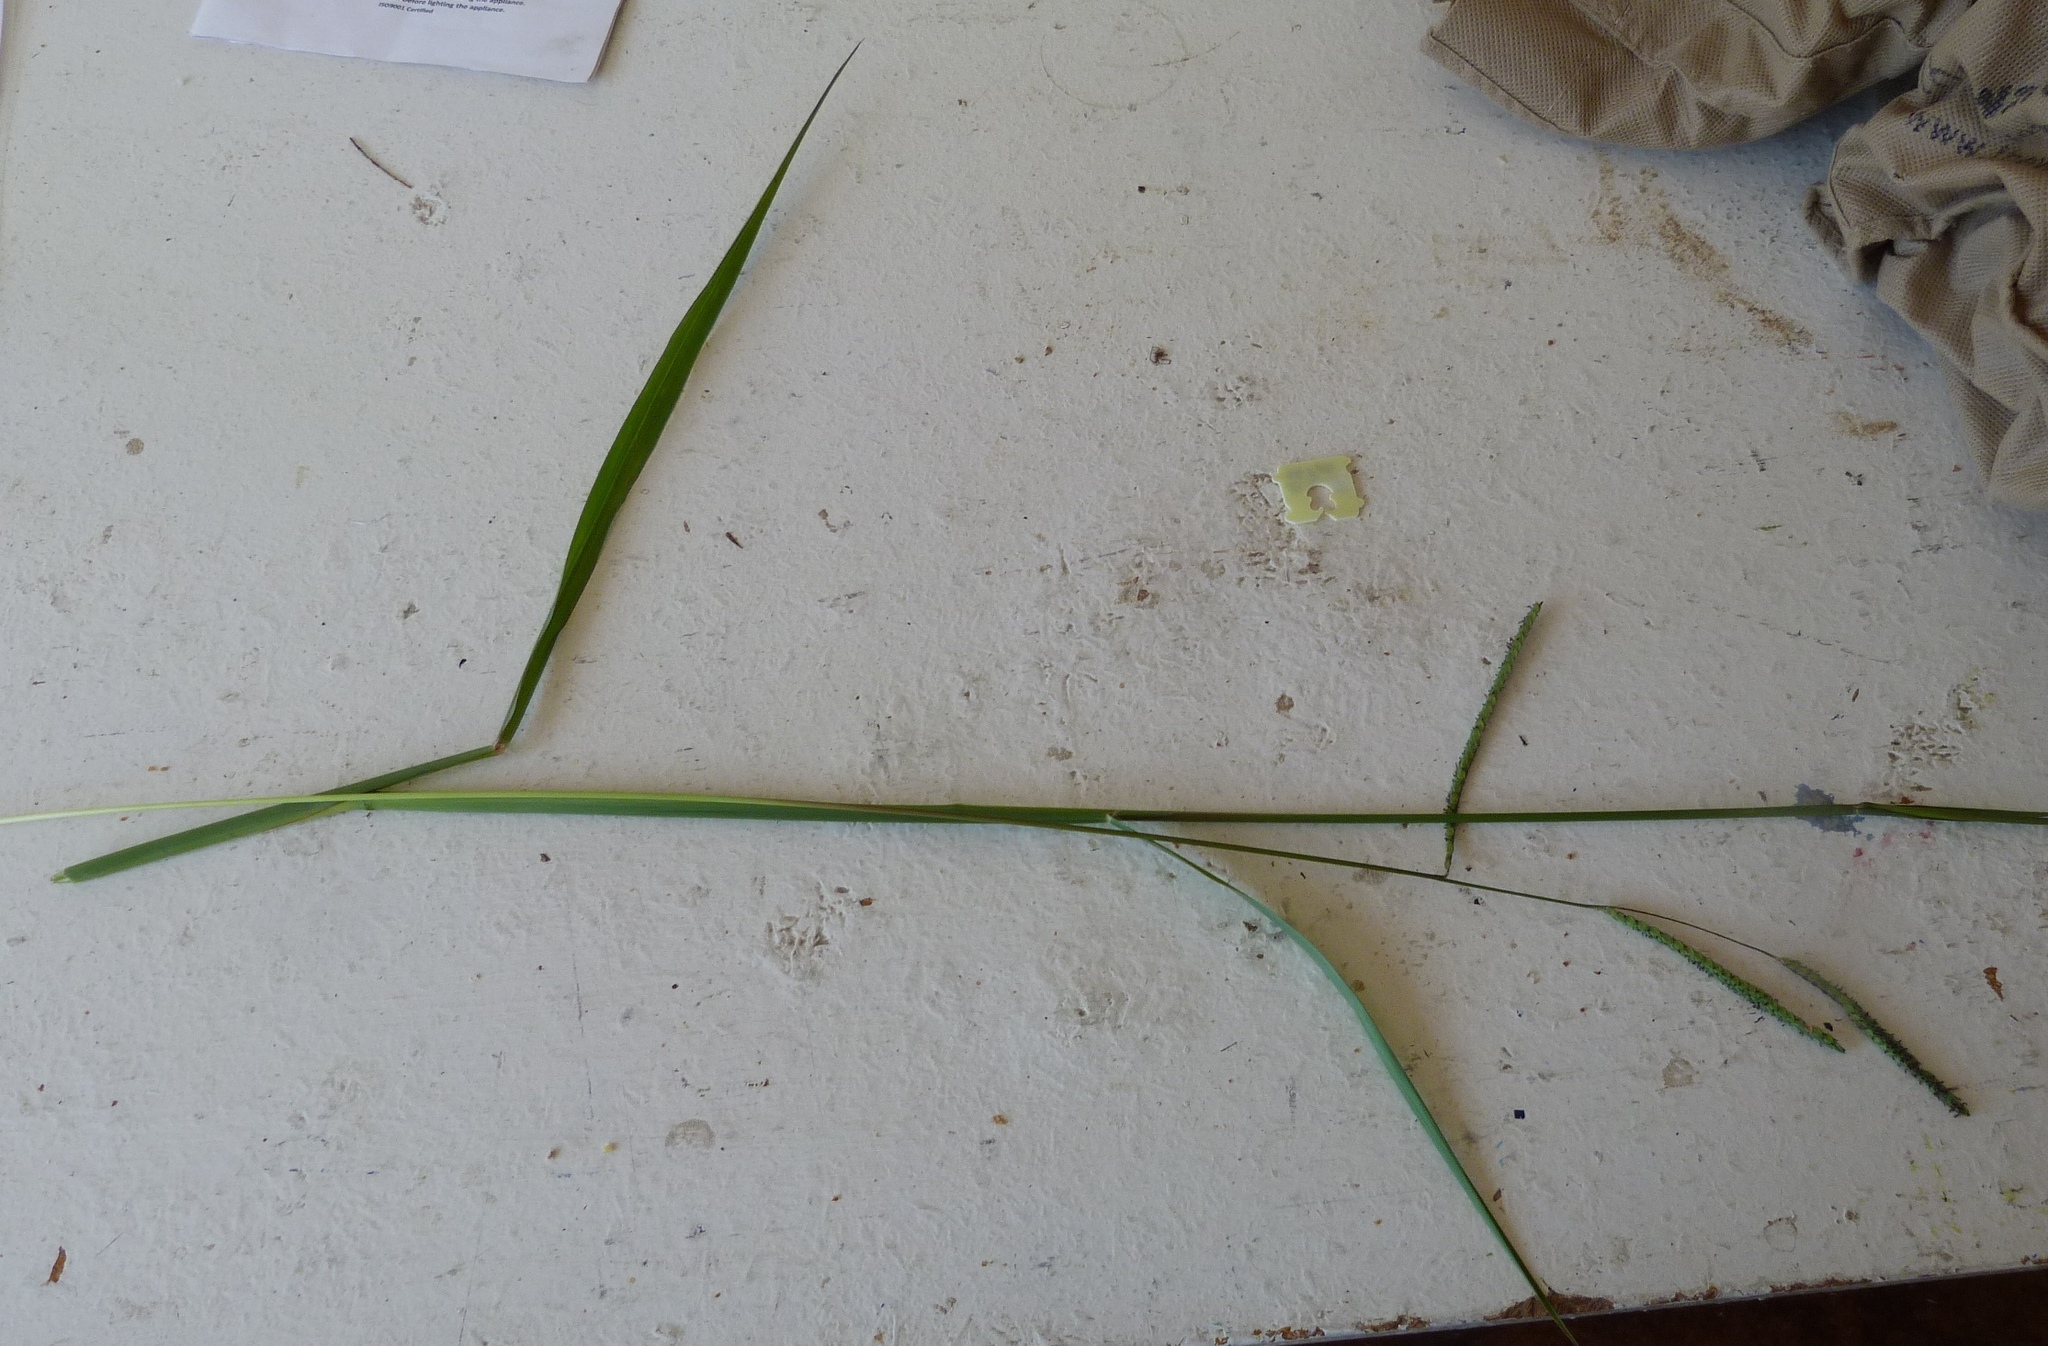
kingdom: Plantae
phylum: Tracheophyta
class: Liliopsida
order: Poales
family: Poaceae
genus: Paspalum
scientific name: Paspalum dilatatum
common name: Dallisgrass
